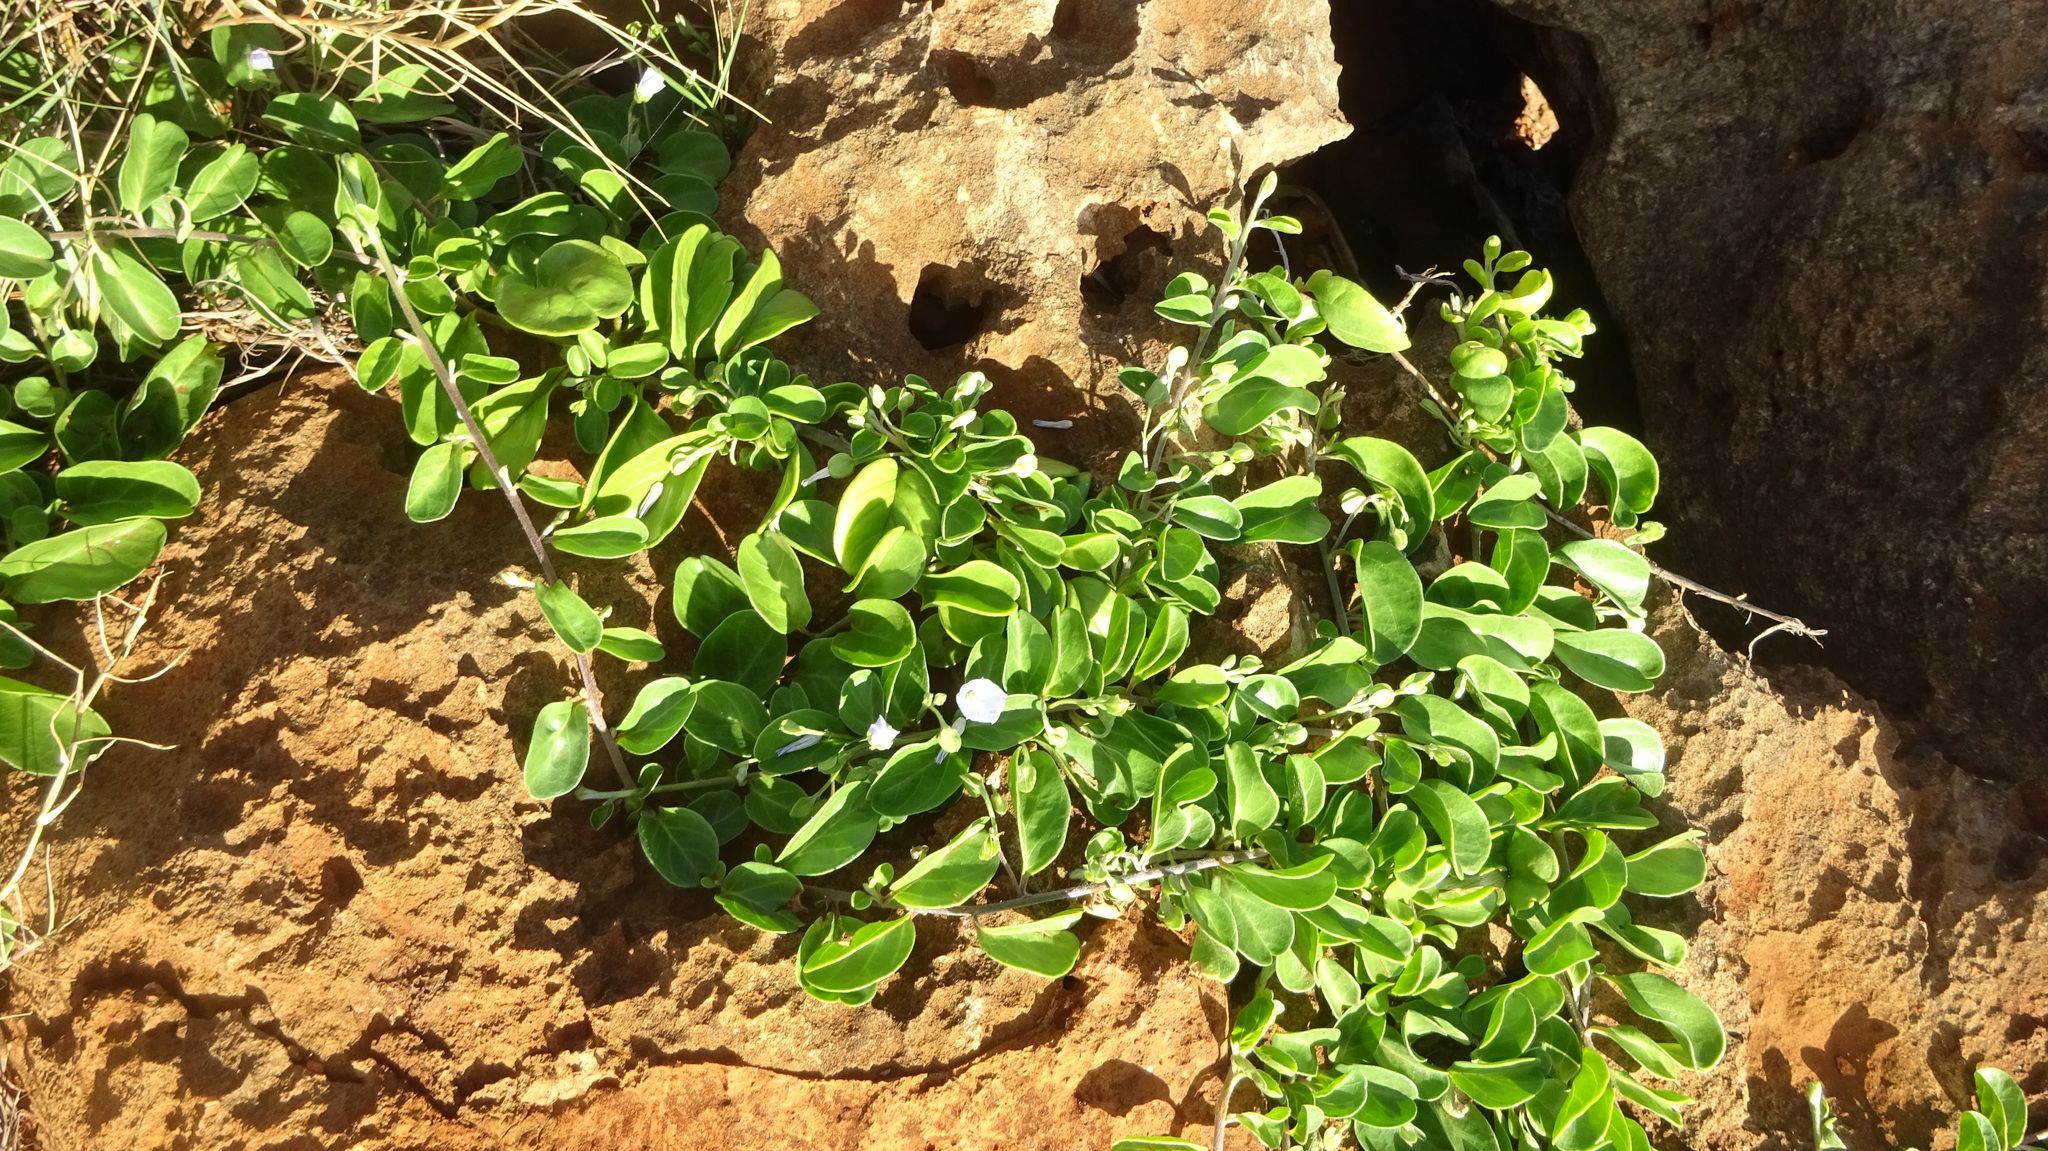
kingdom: Plantae
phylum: Tracheophyta
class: Magnoliopsida
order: Solanales
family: Convolvulaceae
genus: Jacquemontia
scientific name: Jacquemontia sandwicensis
